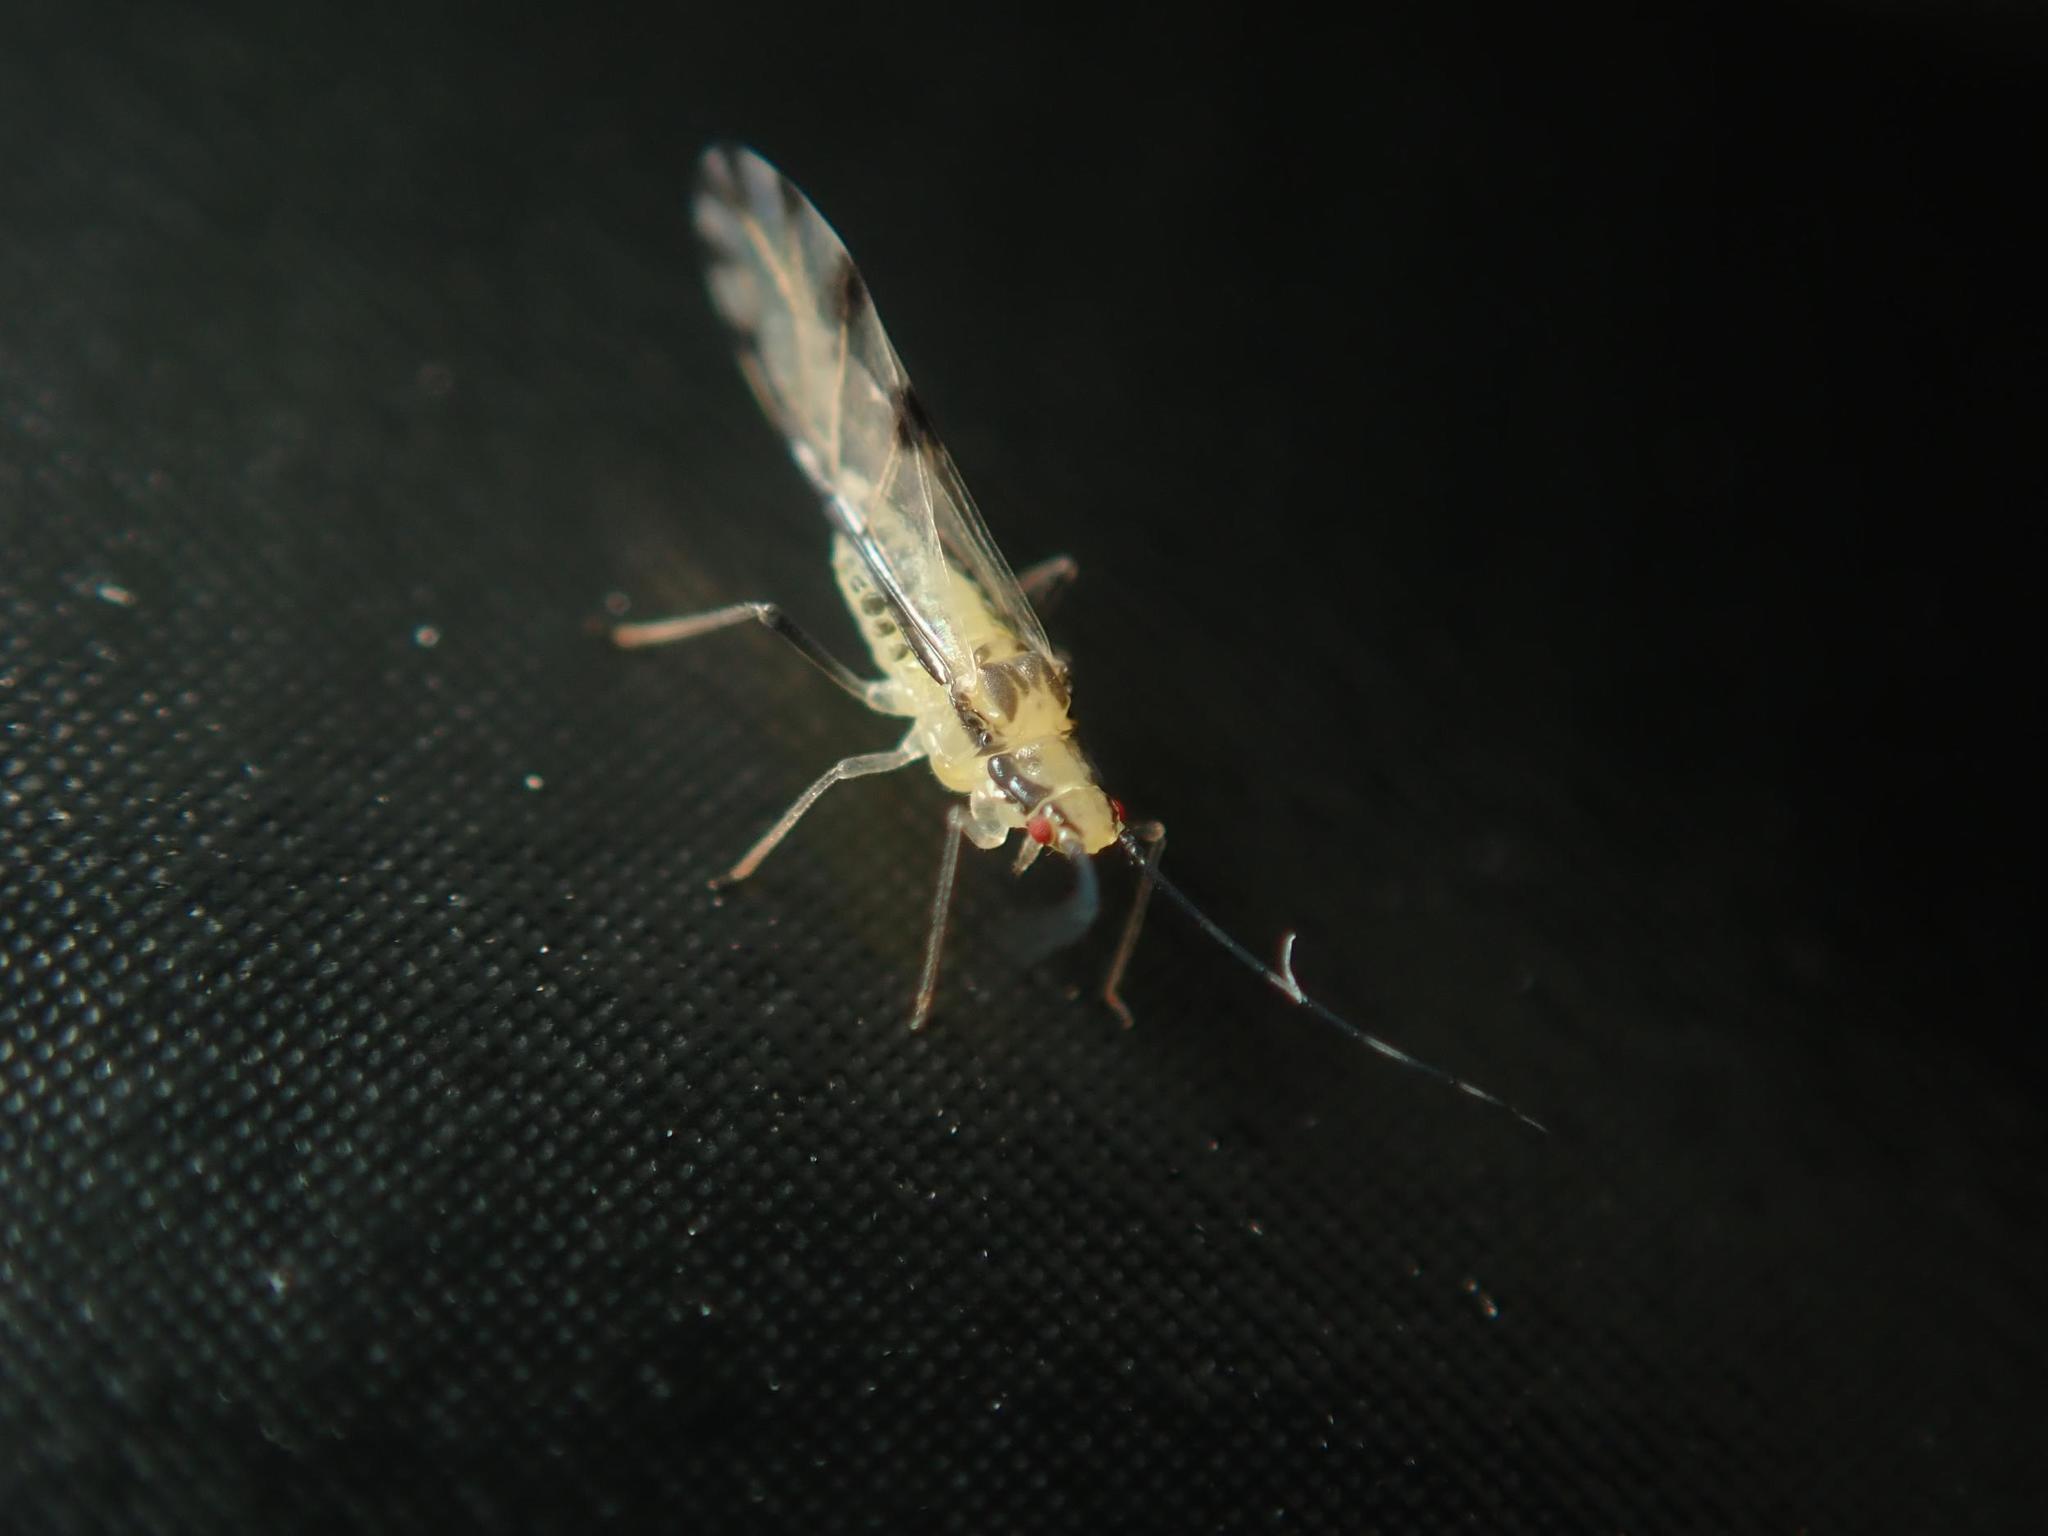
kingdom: Animalia
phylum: Arthropoda
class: Insecta
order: Hemiptera
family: Aphididae
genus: Eucallipterus
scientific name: Eucallipterus tiliae
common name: Aphid
